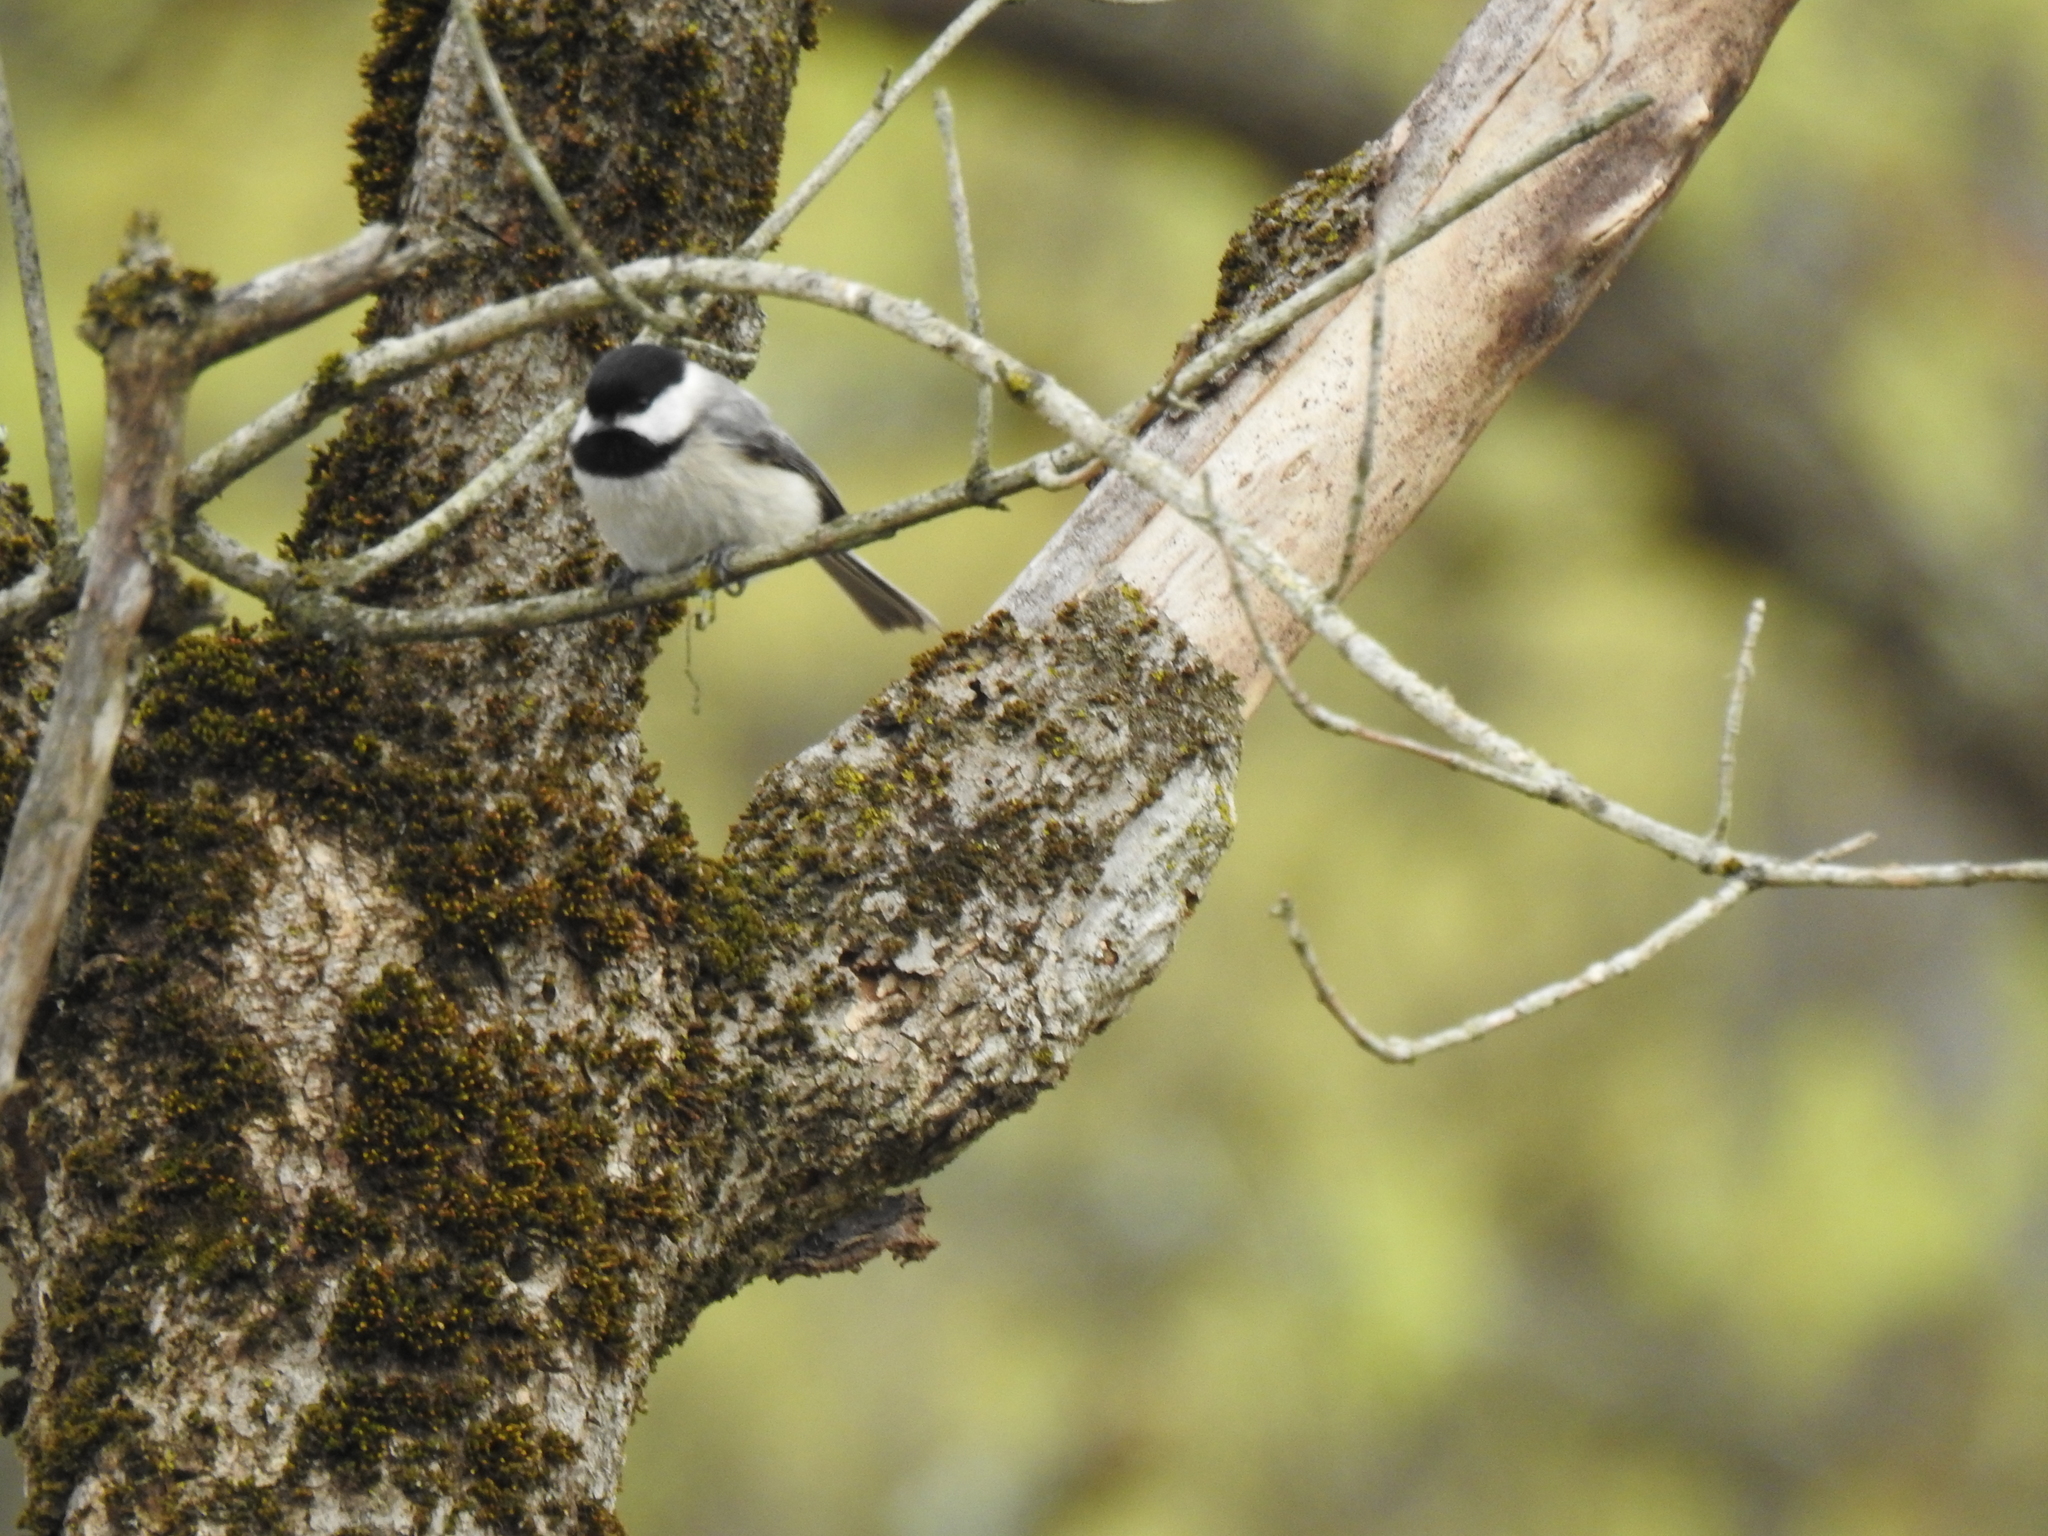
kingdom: Animalia
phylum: Chordata
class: Aves
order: Passeriformes
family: Paridae
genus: Poecile
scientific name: Poecile atricapillus
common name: Black-capped chickadee
